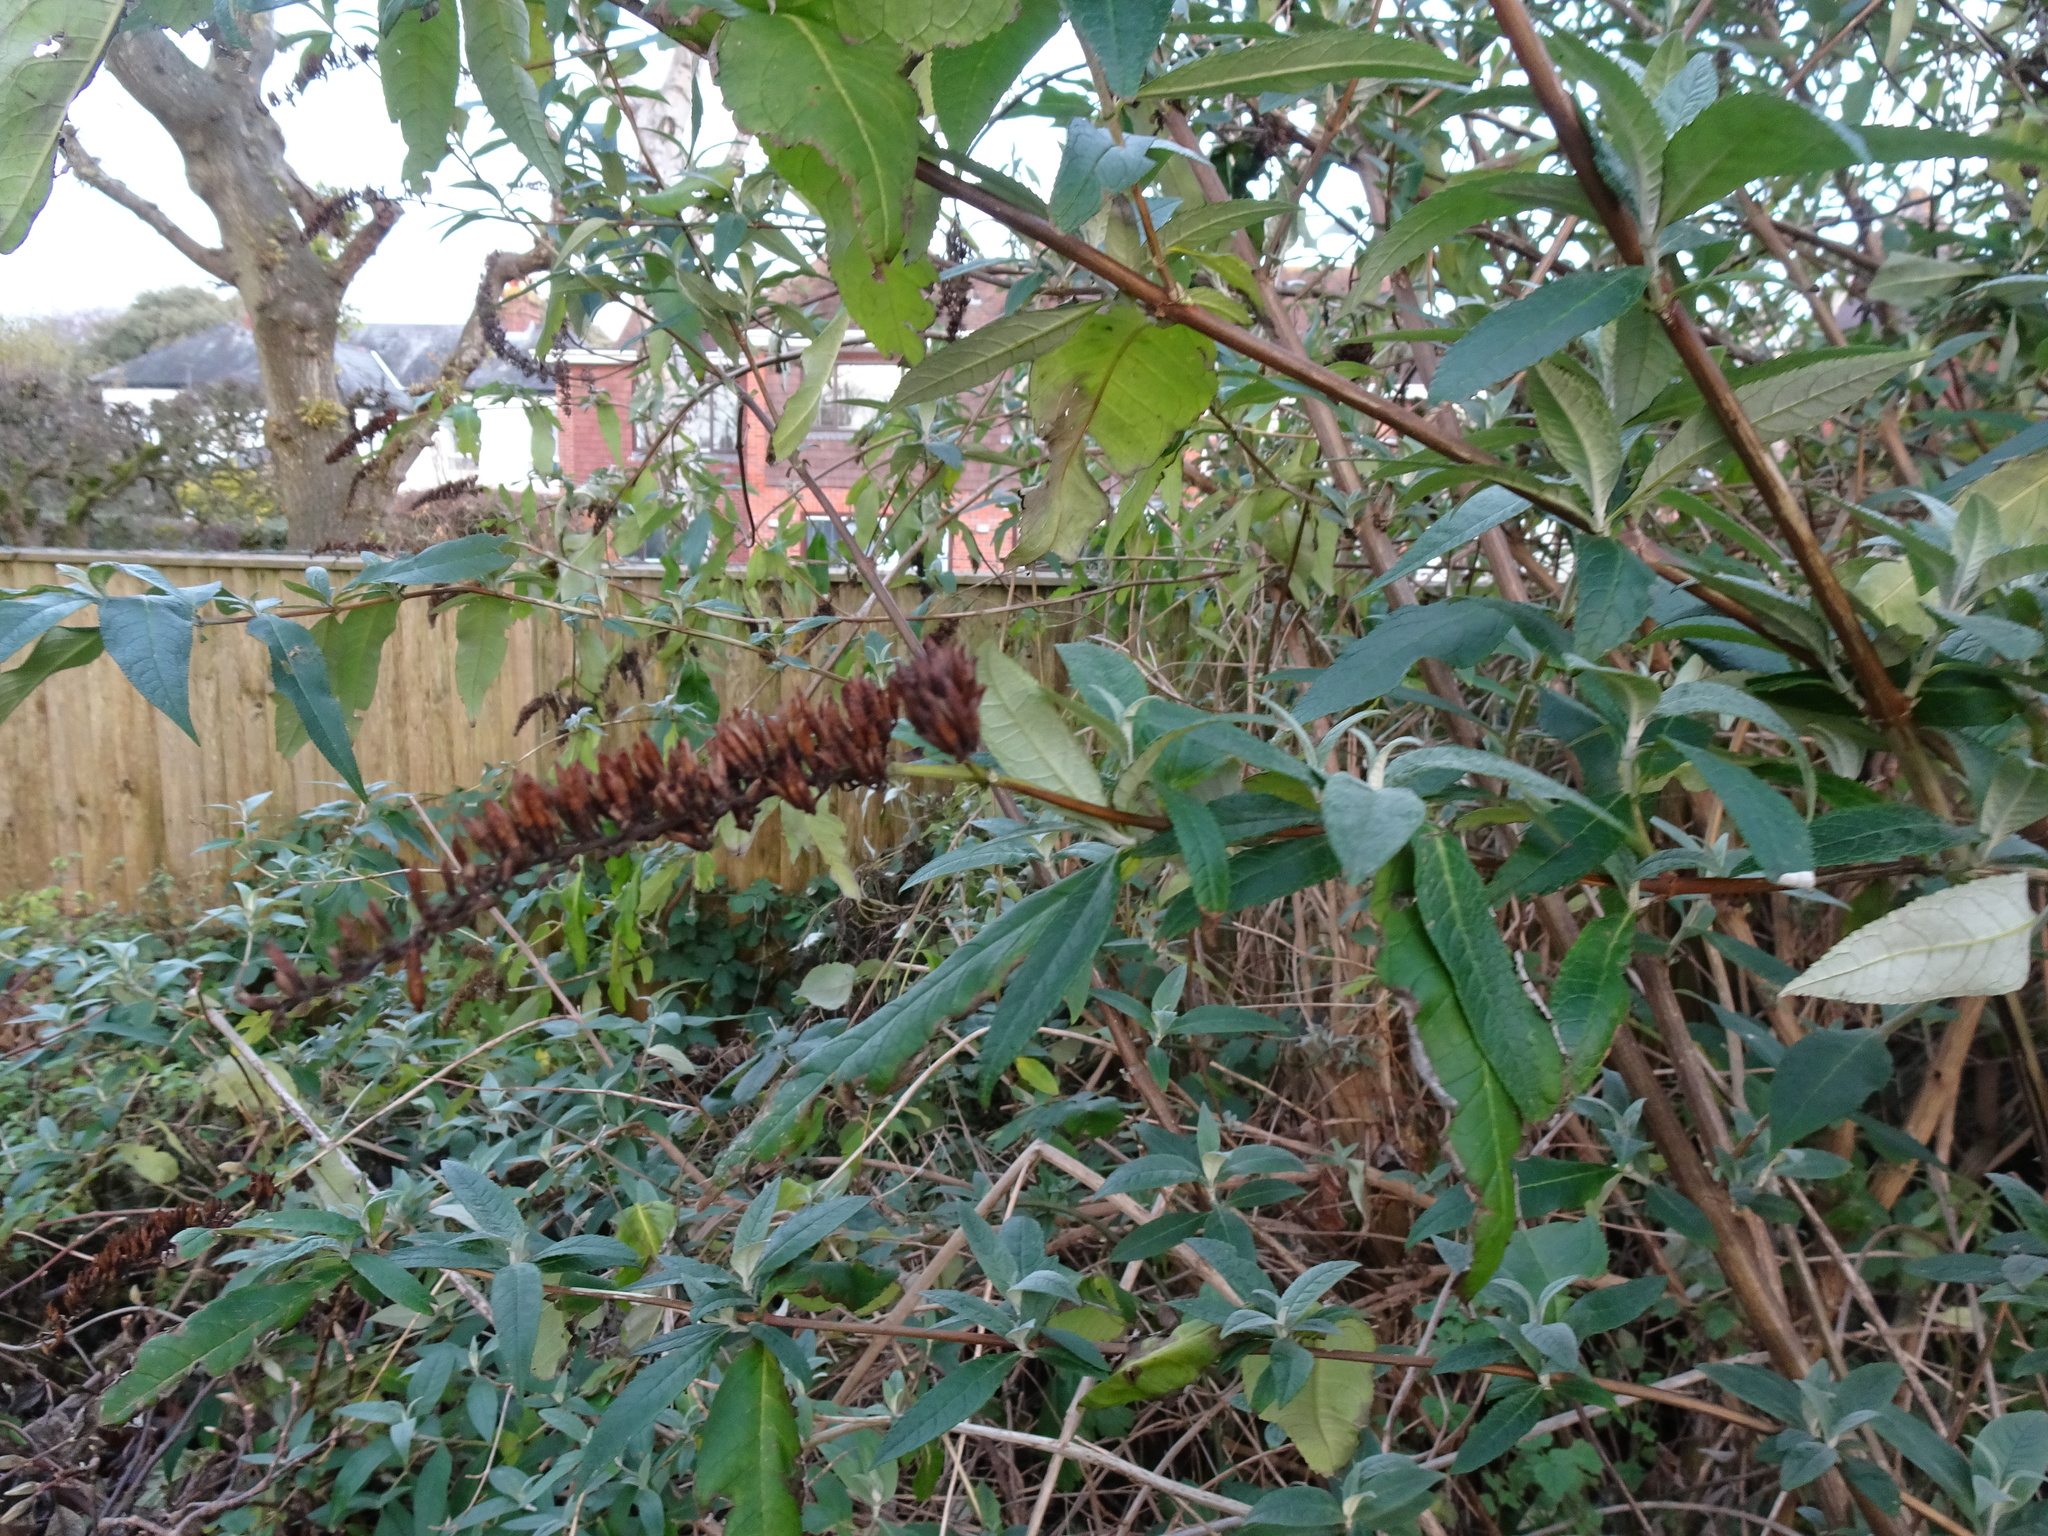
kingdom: Plantae
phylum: Tracheophyta
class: Magnoliopsida
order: Lamiales
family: Scrophulariaceae
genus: Buddleja
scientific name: Buddleja davidii
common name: Butterfly-bush
